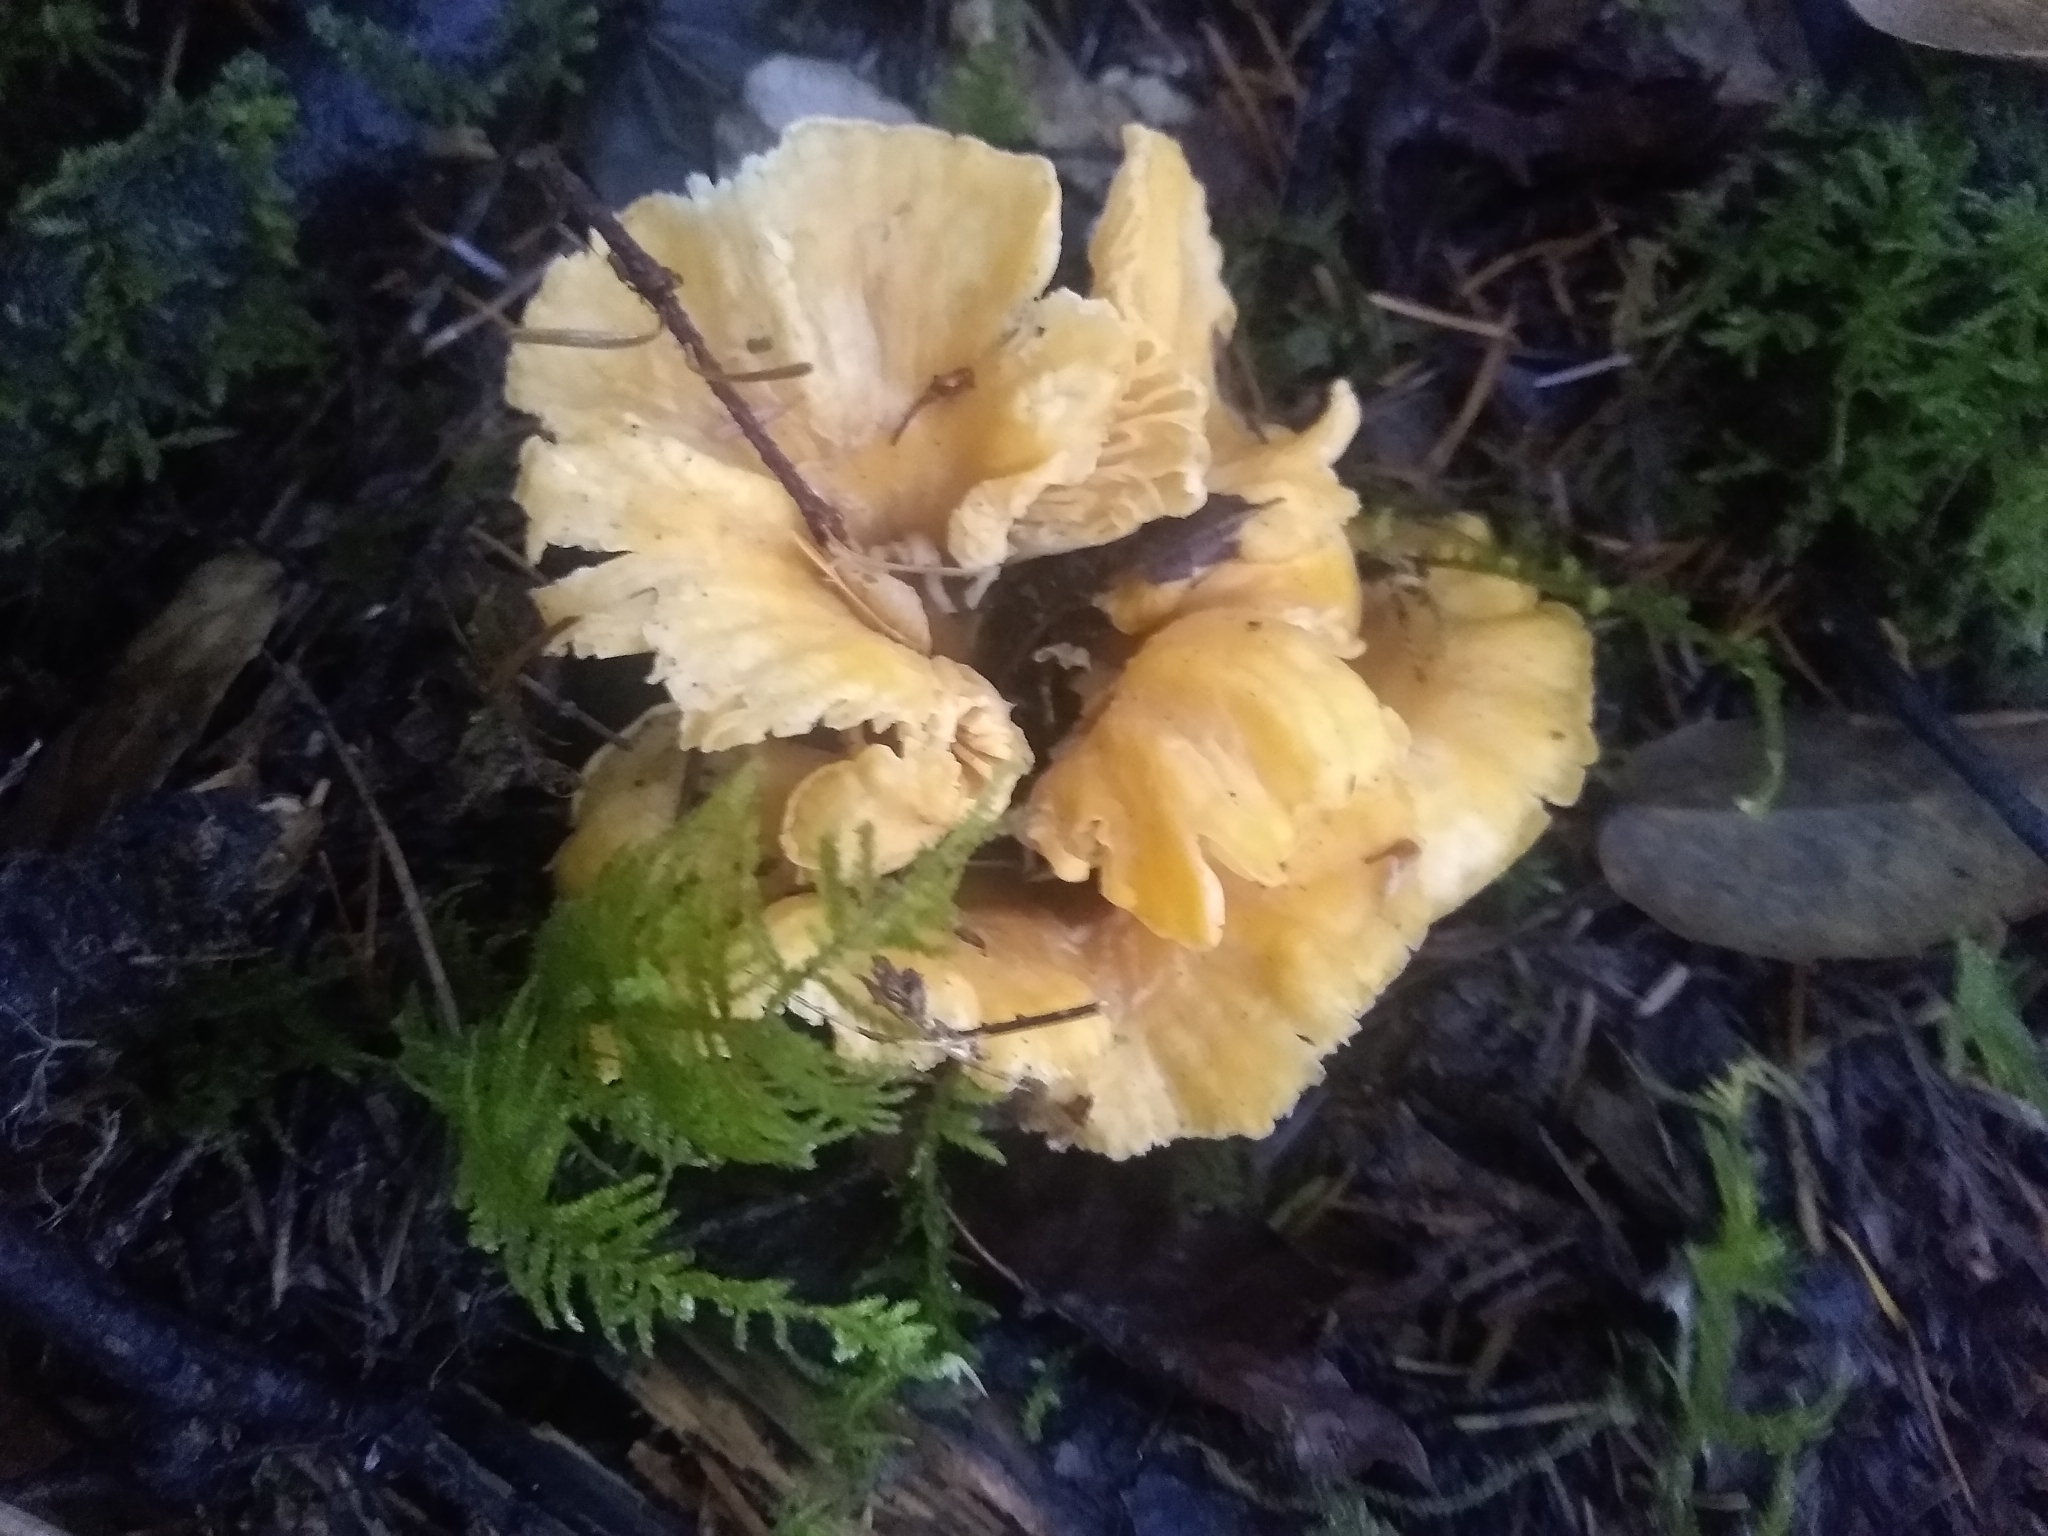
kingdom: Fungi
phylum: Basidiomycota
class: Agaricomycetes
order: Cantharellales
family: Hydnaceae
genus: Cantharellus
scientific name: Cantharellus formosus
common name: Pacific golden chanterelle
